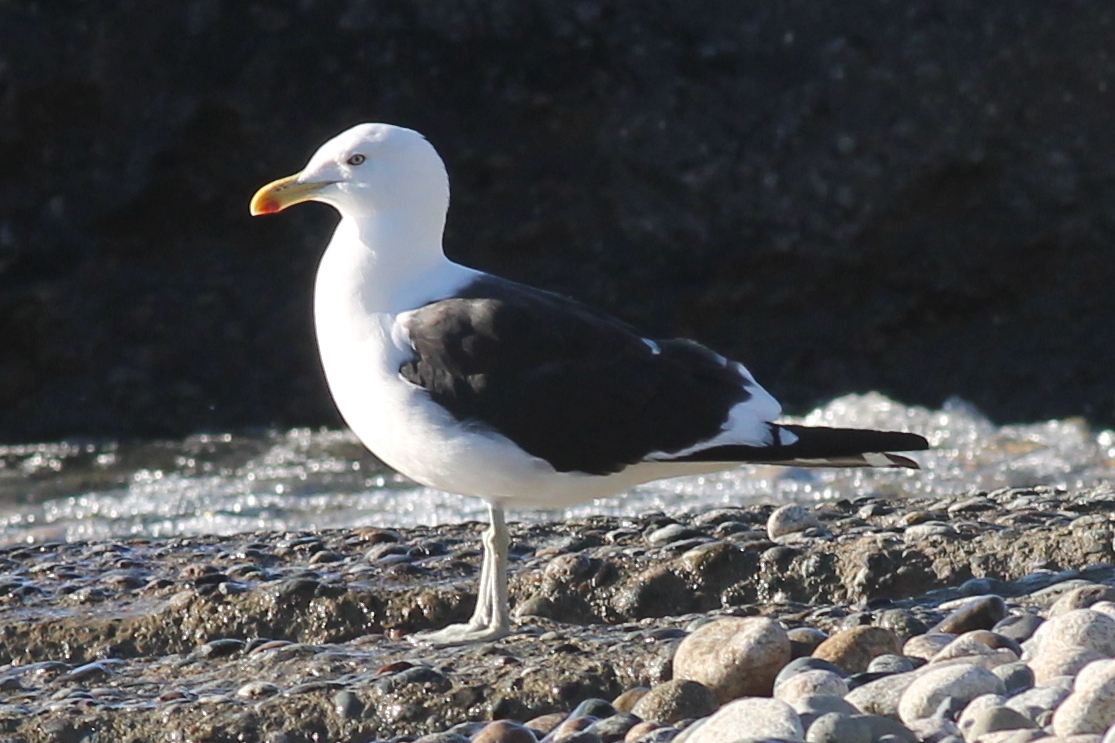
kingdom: Animalia
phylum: Chordata
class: Aves
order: Charadriiformes
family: Laridae
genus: Larus
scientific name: Larus dominicanus
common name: Kelp gull
